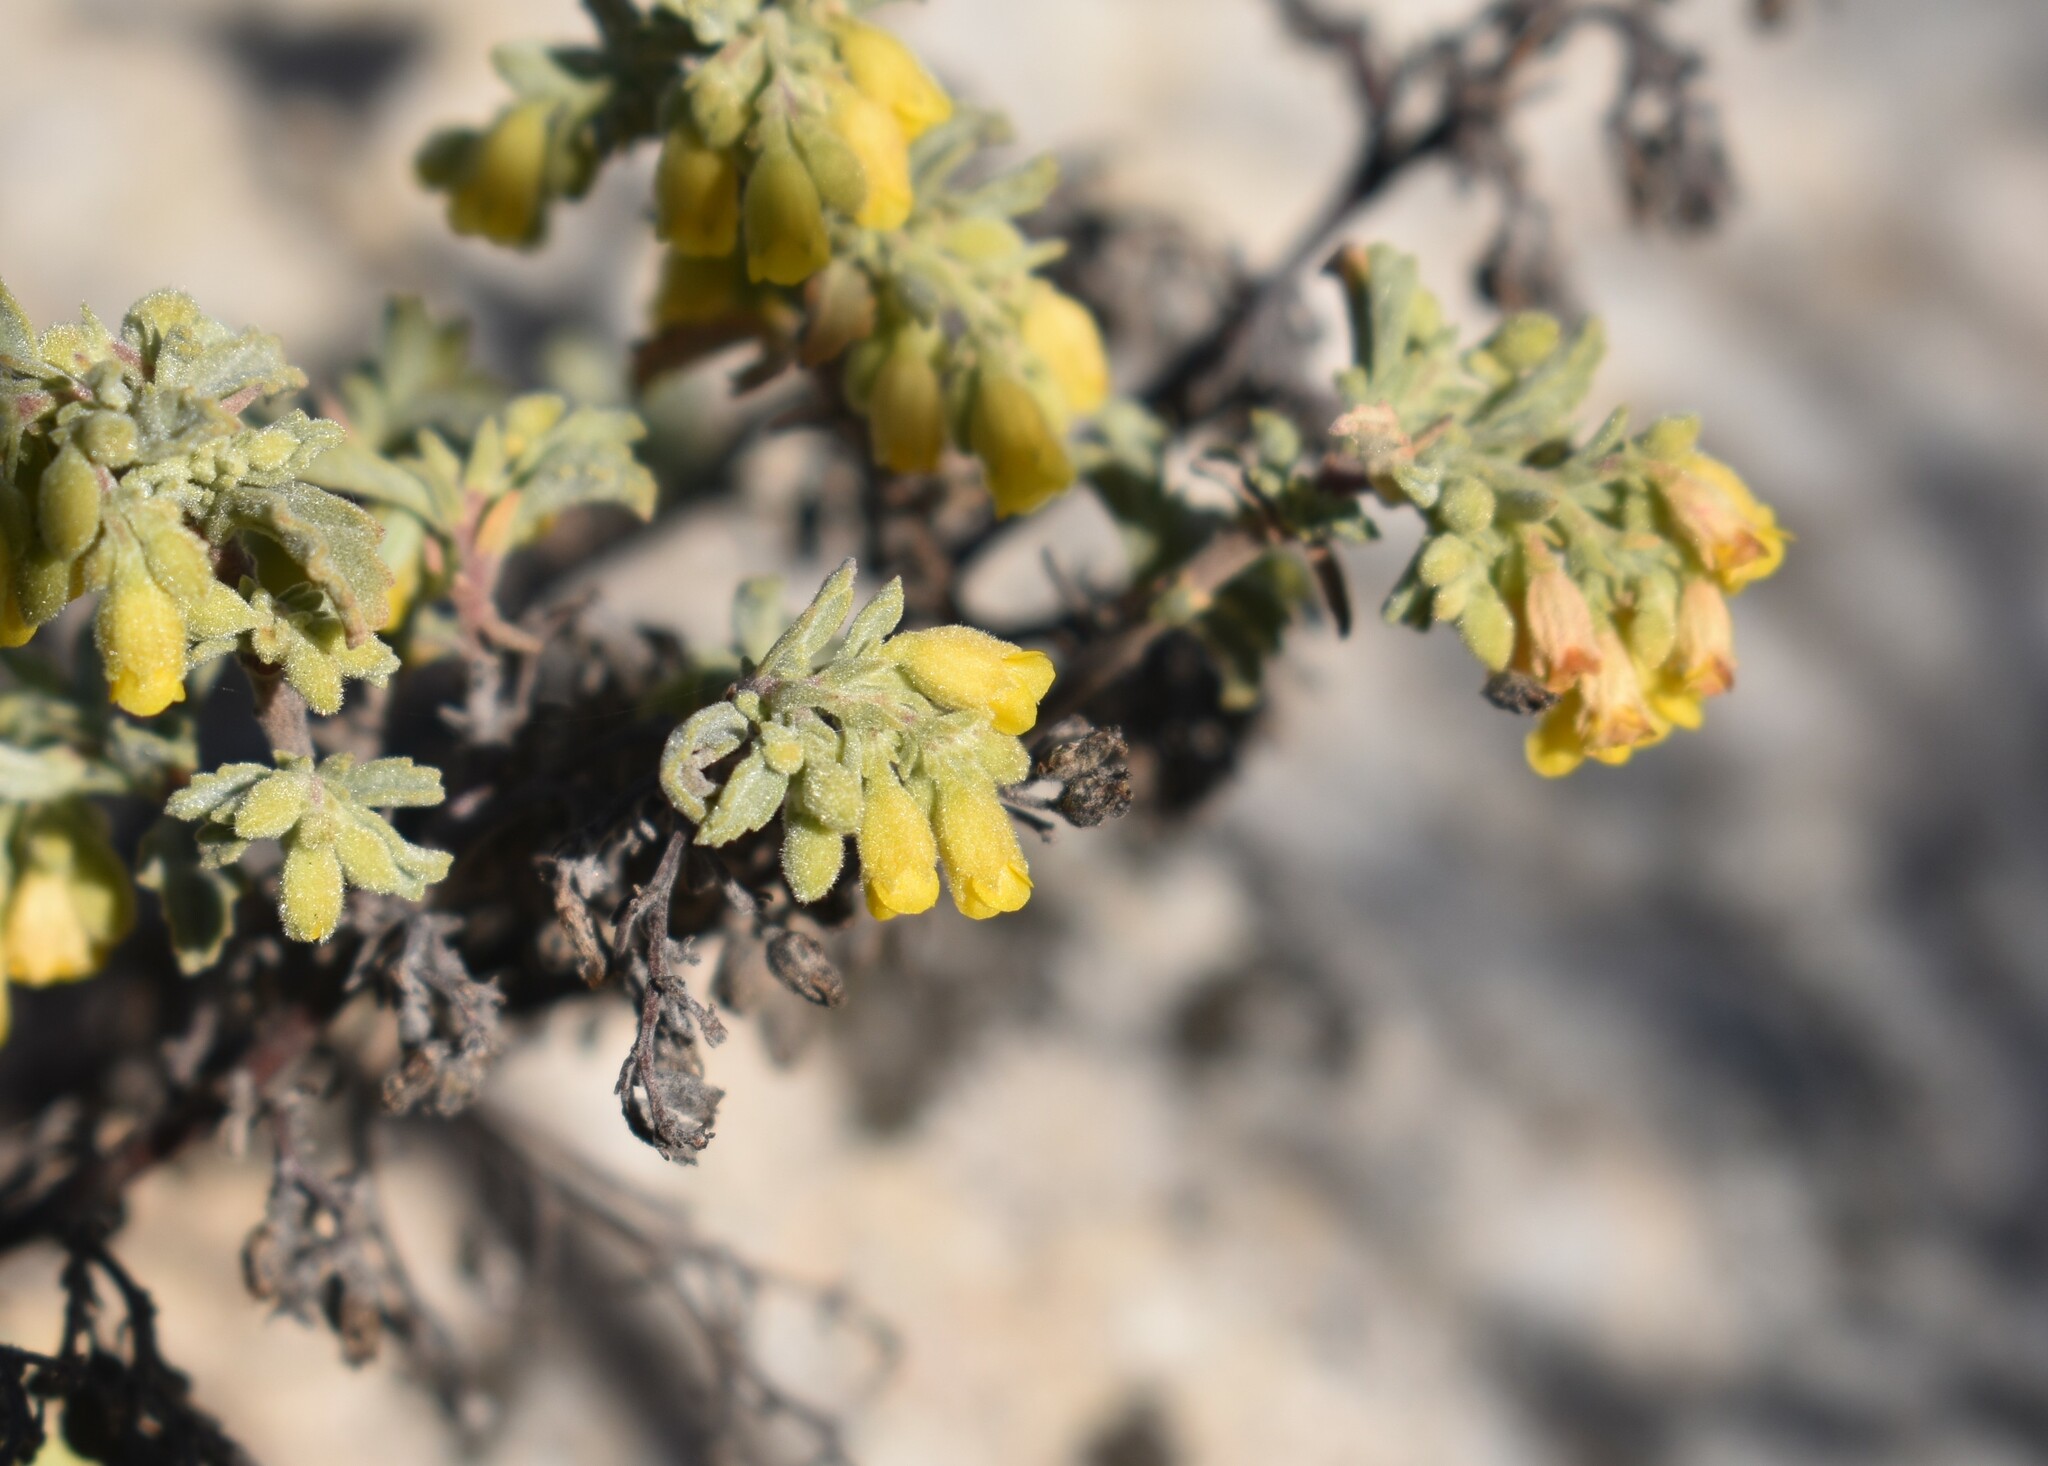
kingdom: Plantae
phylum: Tracheophyta
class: Magnoliopsida
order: Malvales
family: Malvaceae
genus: Hermannia
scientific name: Hermannia holosericea
